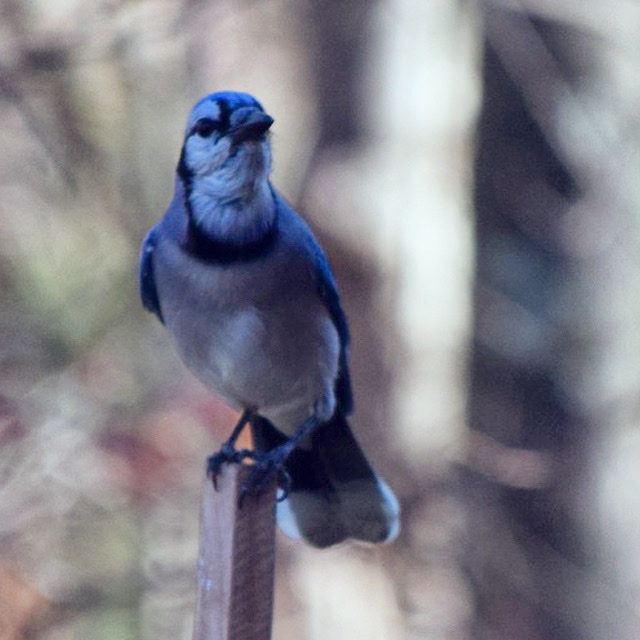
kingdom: Animalia
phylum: Chordata
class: Aves
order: Passeriformes
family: Corvidae
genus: Cyanocitta
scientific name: Cyanocitta cristata
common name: Blue jay
